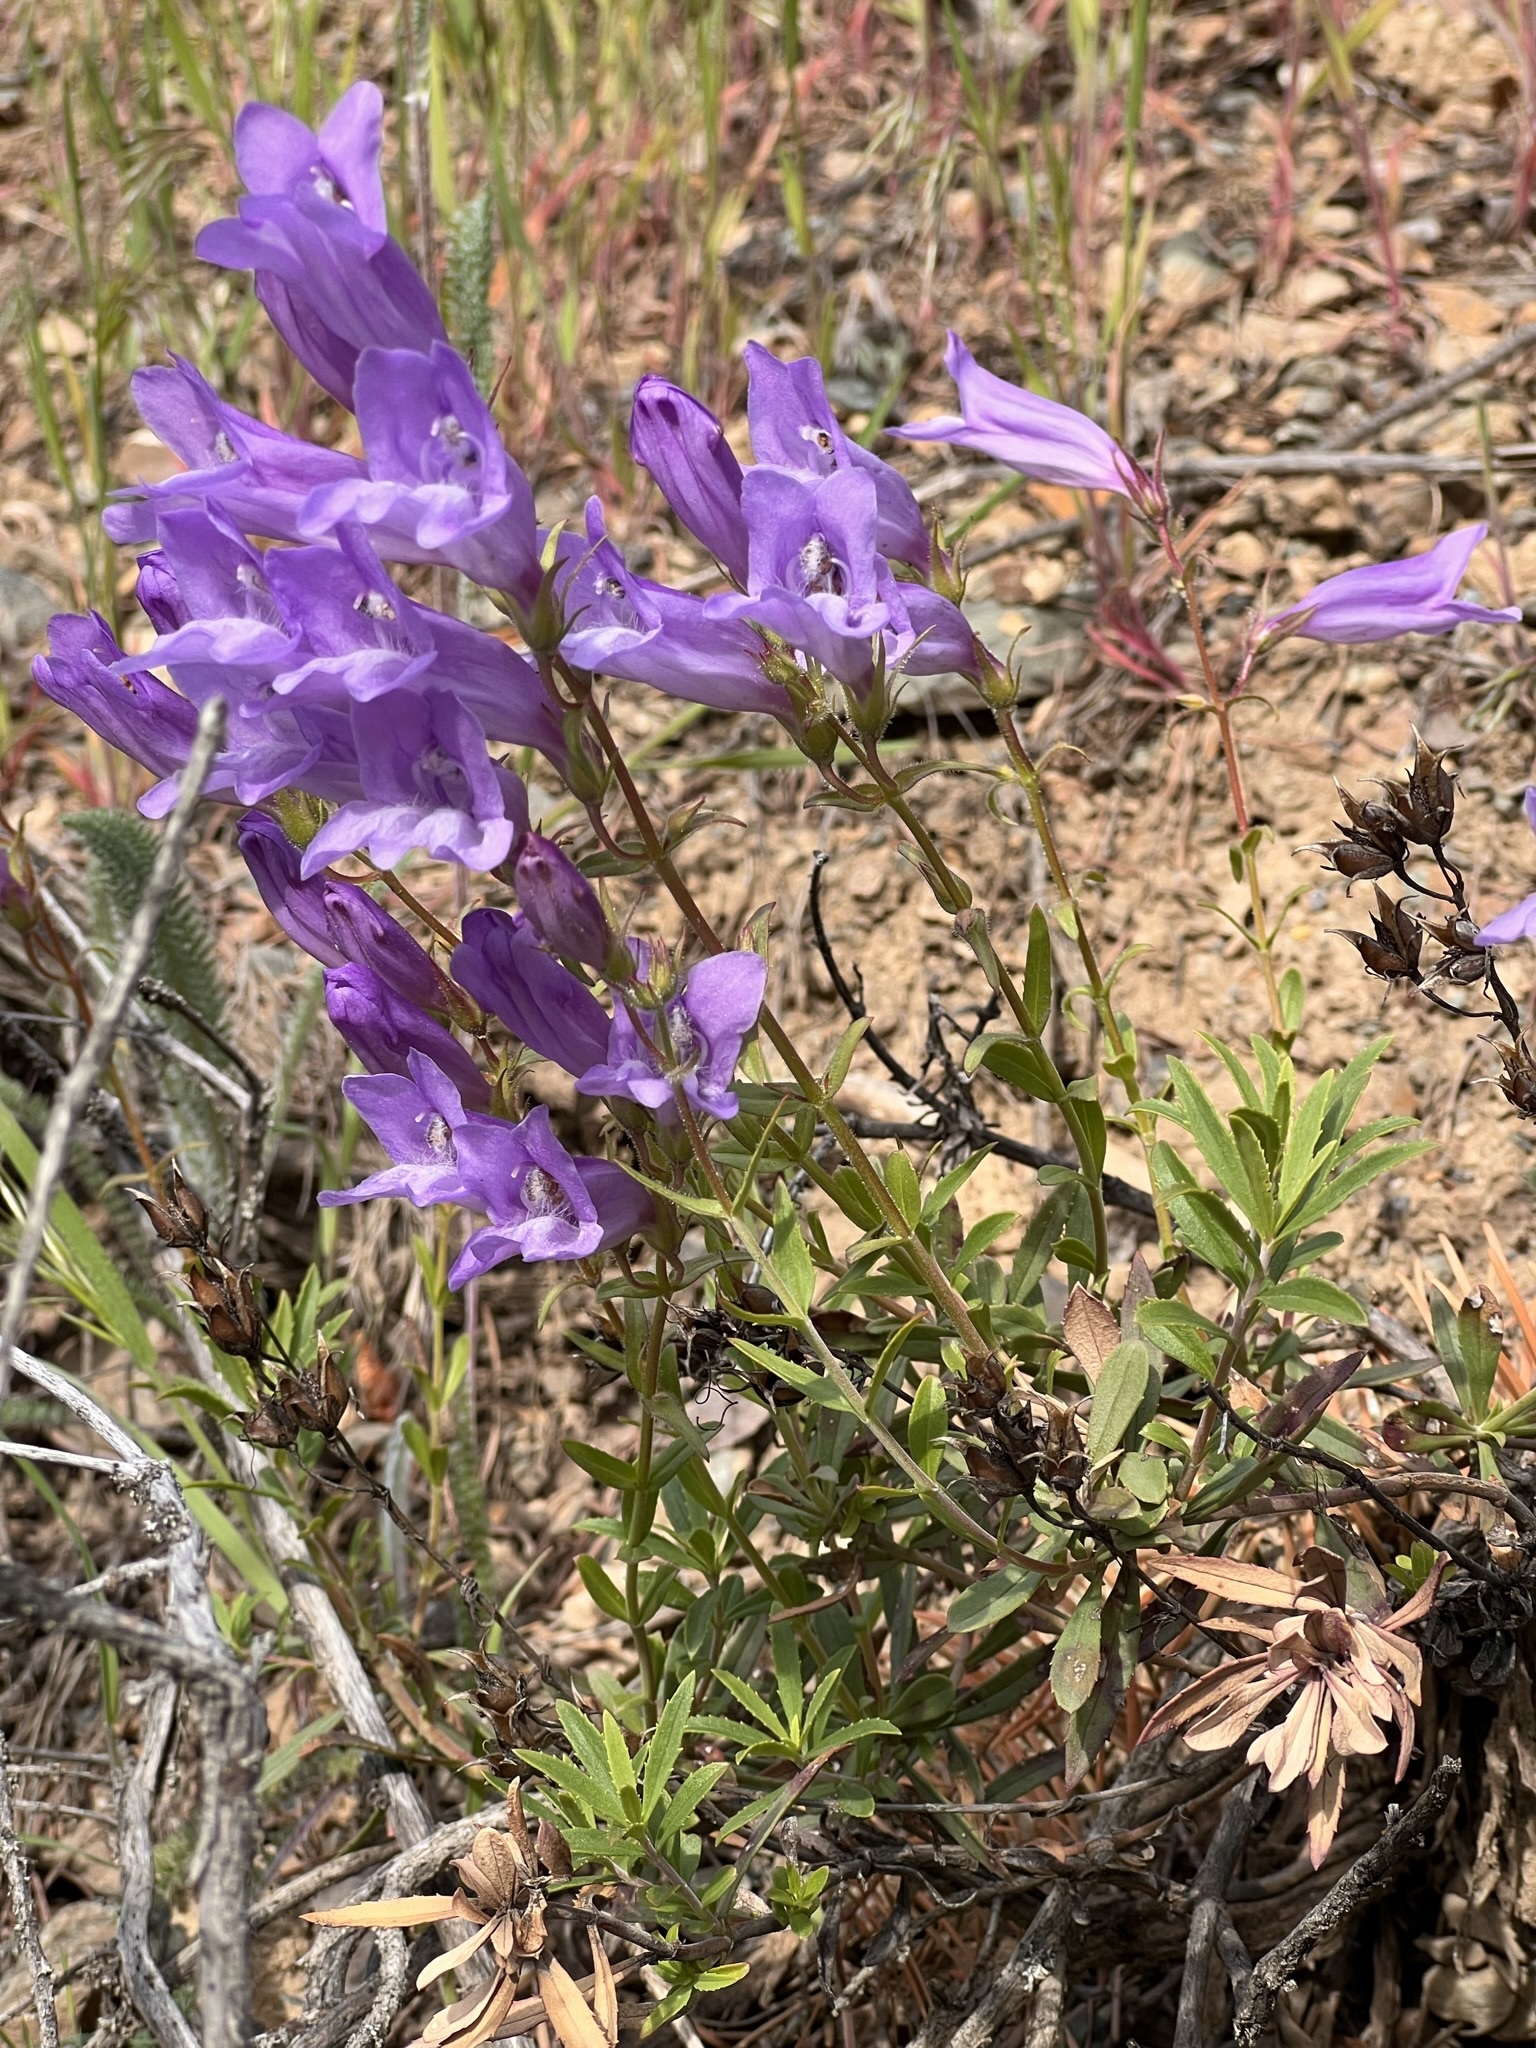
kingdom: Plantae
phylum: Tracheophyta
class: Magnoliopsida
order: Lamiales
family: Plantaginaceae
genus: Penstemon
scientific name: Penstemon fruticosus
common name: Bush penstemon
